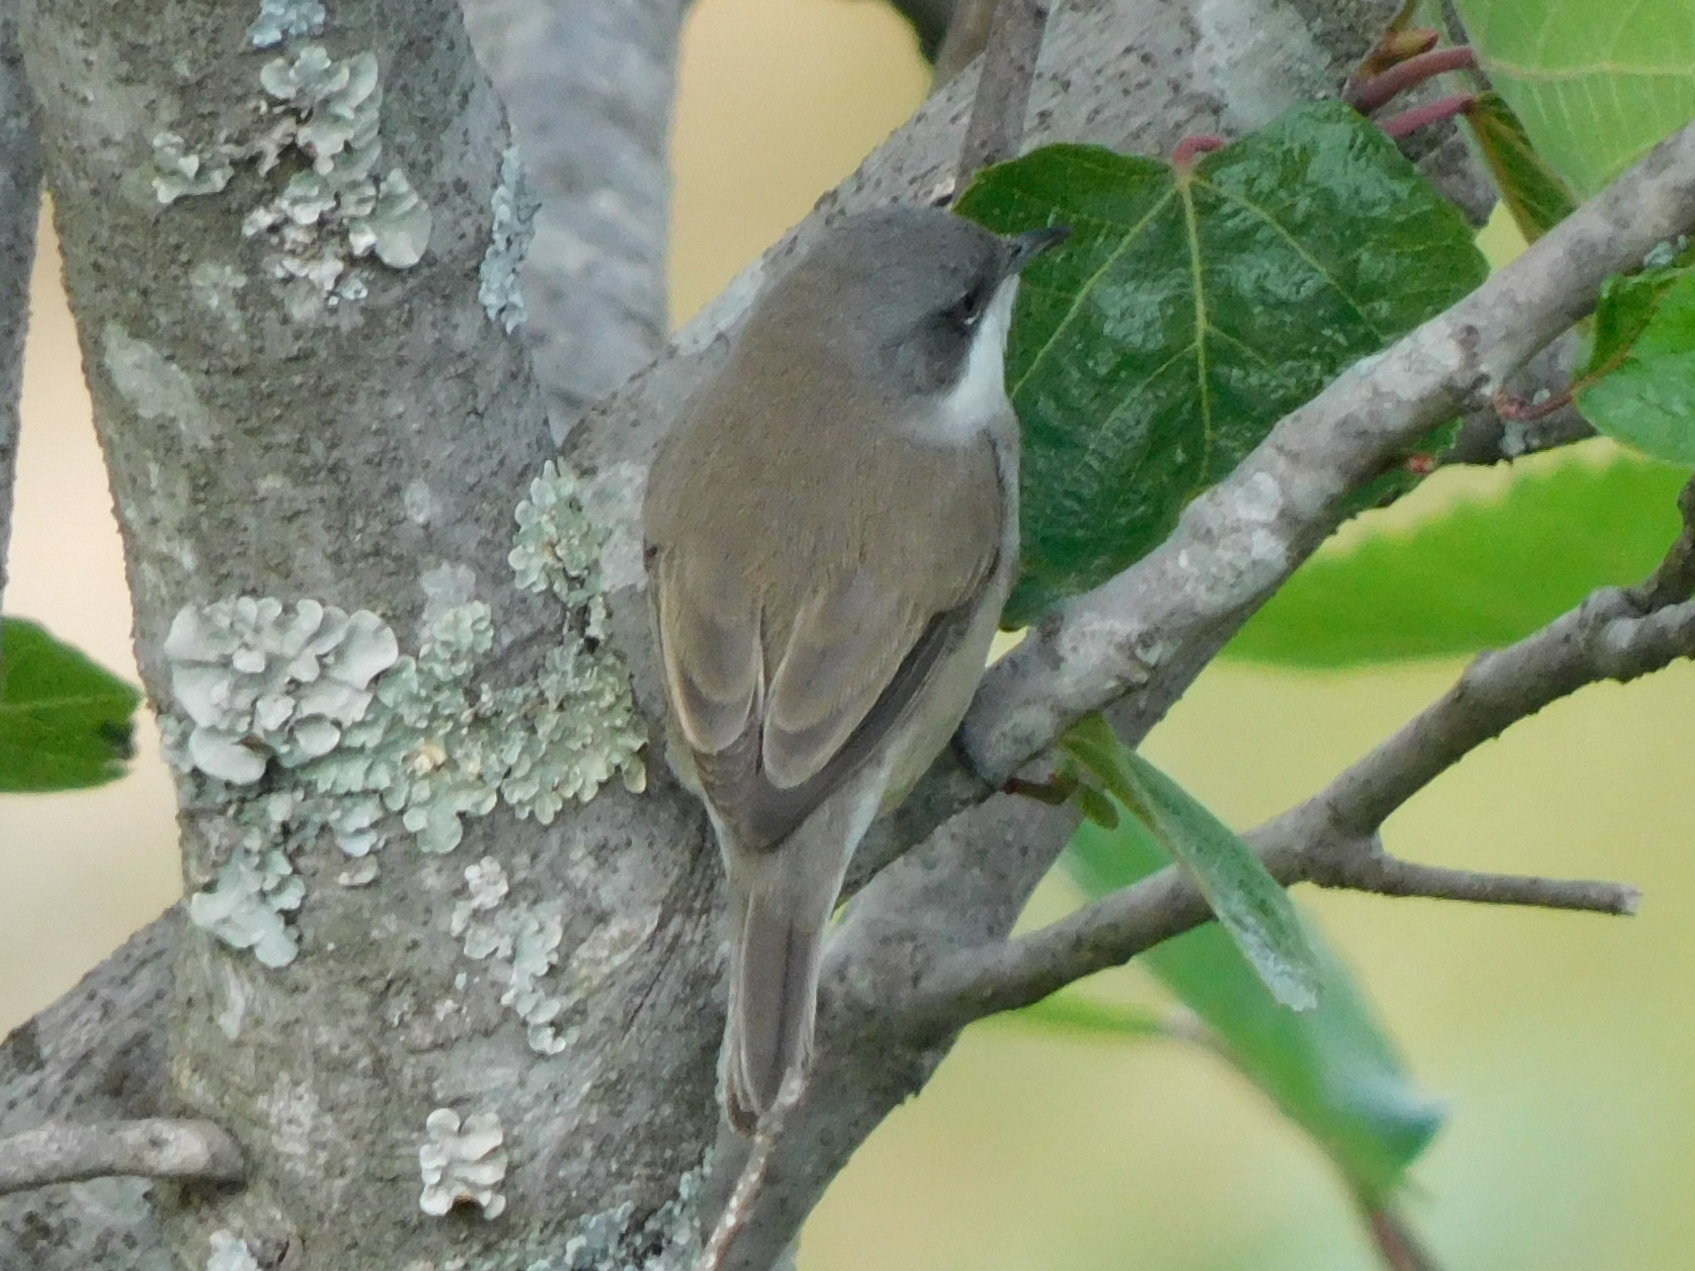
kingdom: Animalia
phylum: Chordata
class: Aves
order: Passeriformes
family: Sylviidae
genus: Sylvia
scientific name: Sylvia curruca
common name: Lesser whitethroat
